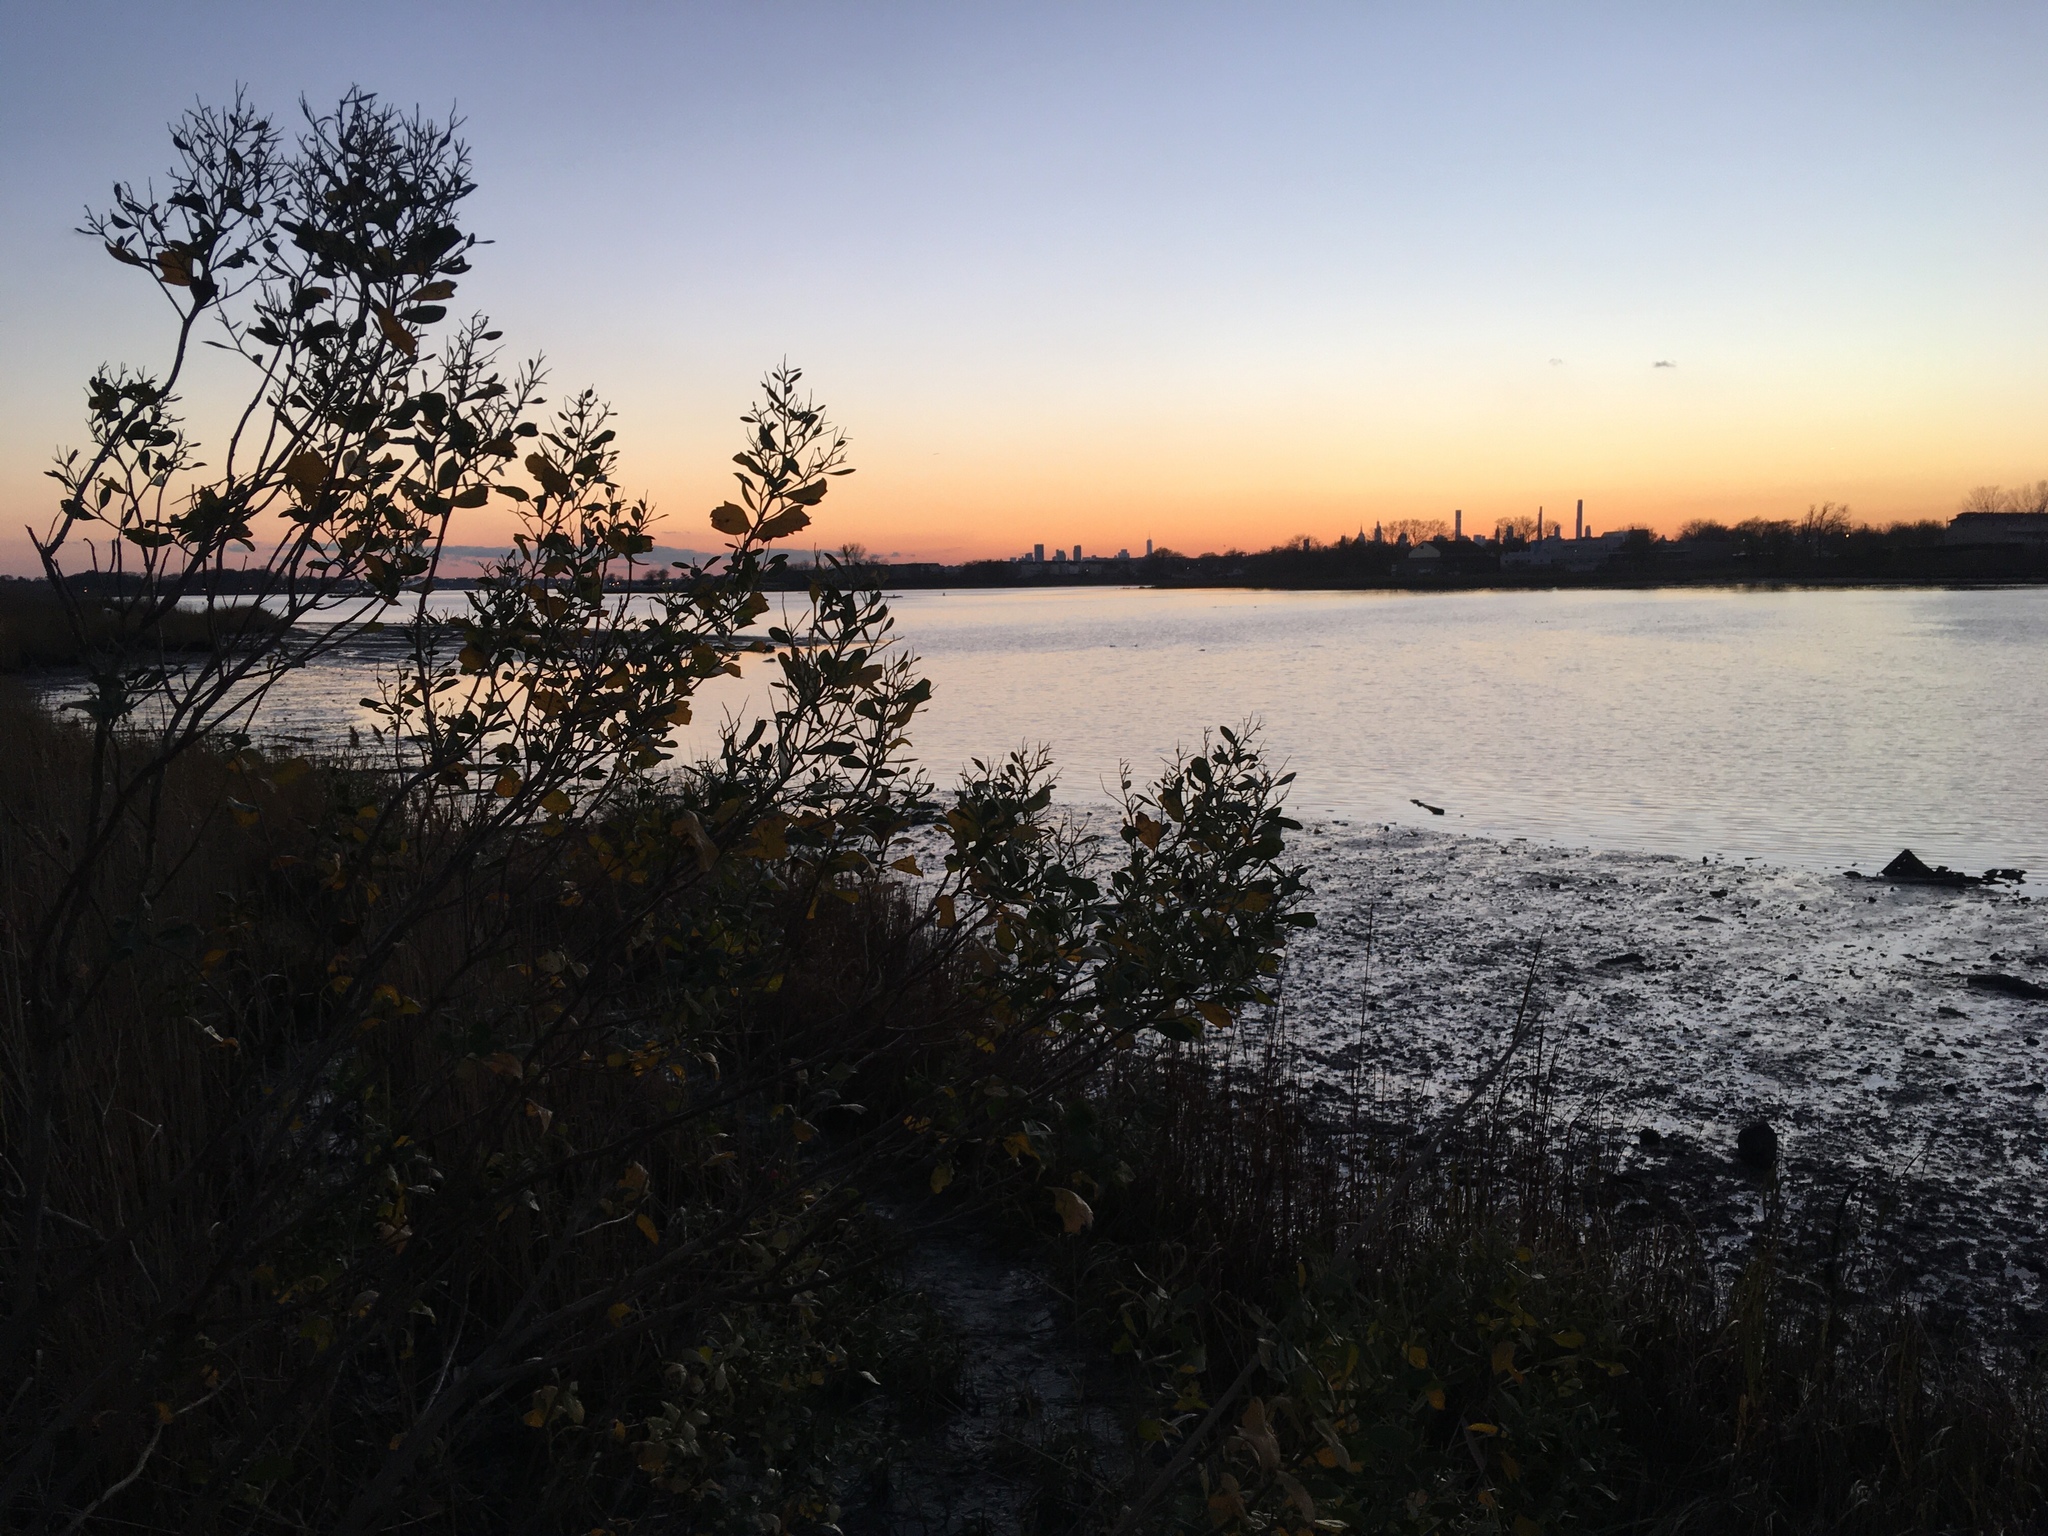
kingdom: Plantae
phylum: Tracheophyta
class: Magnoliopsida
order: Asterales
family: Asteraceae
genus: Baccharis
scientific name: Baccharis halimifolia
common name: Eastern baccharis
